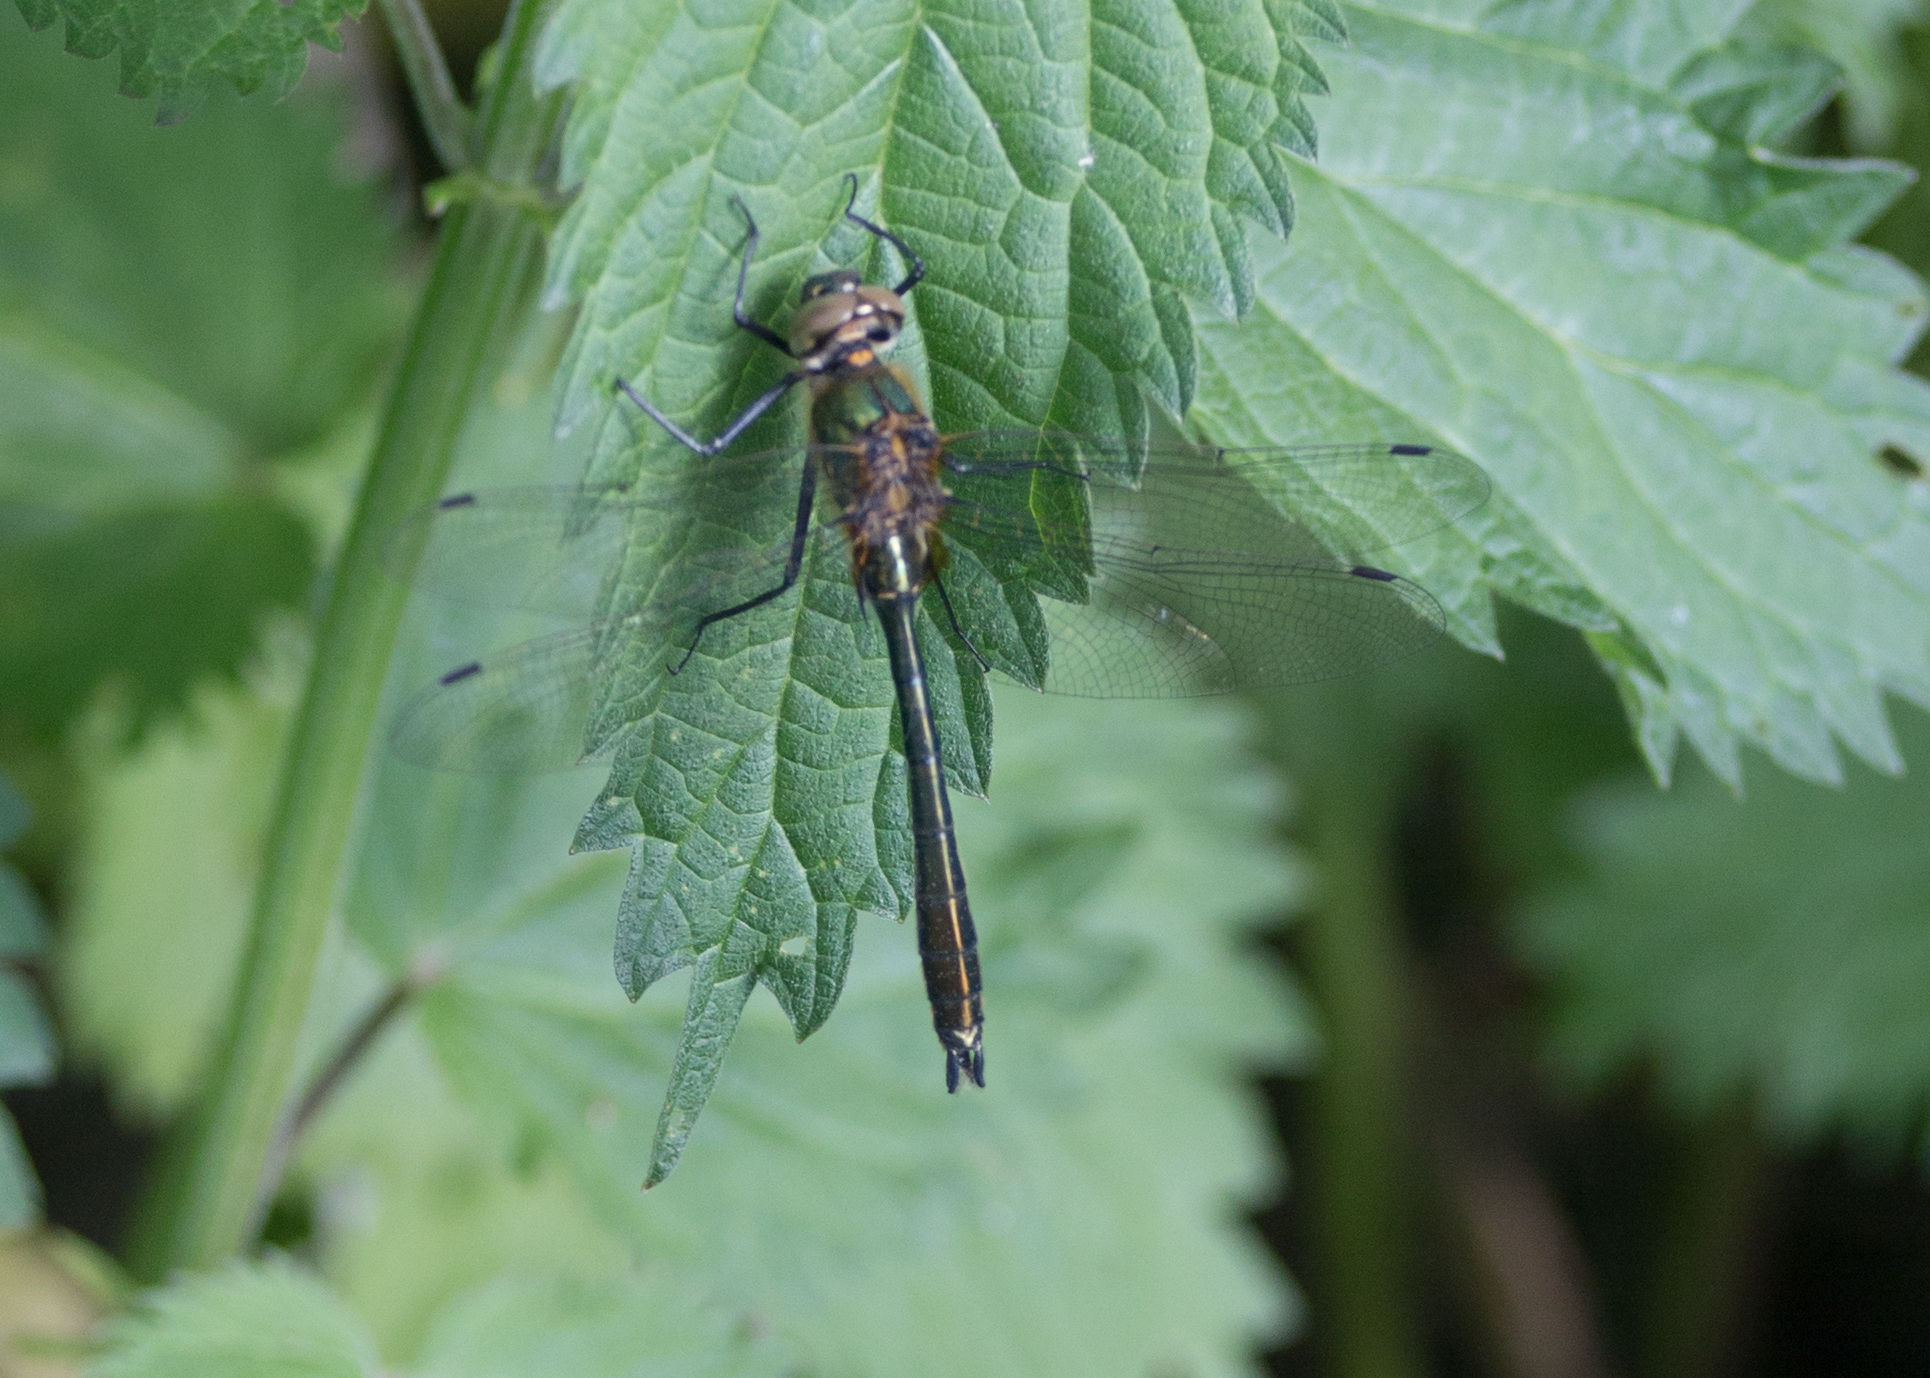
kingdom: Animalia
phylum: Arthropoda
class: Insecta
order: Odonata
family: Corduliidae
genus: Cordulia
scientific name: Cordulia aenea
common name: Downy emerald
